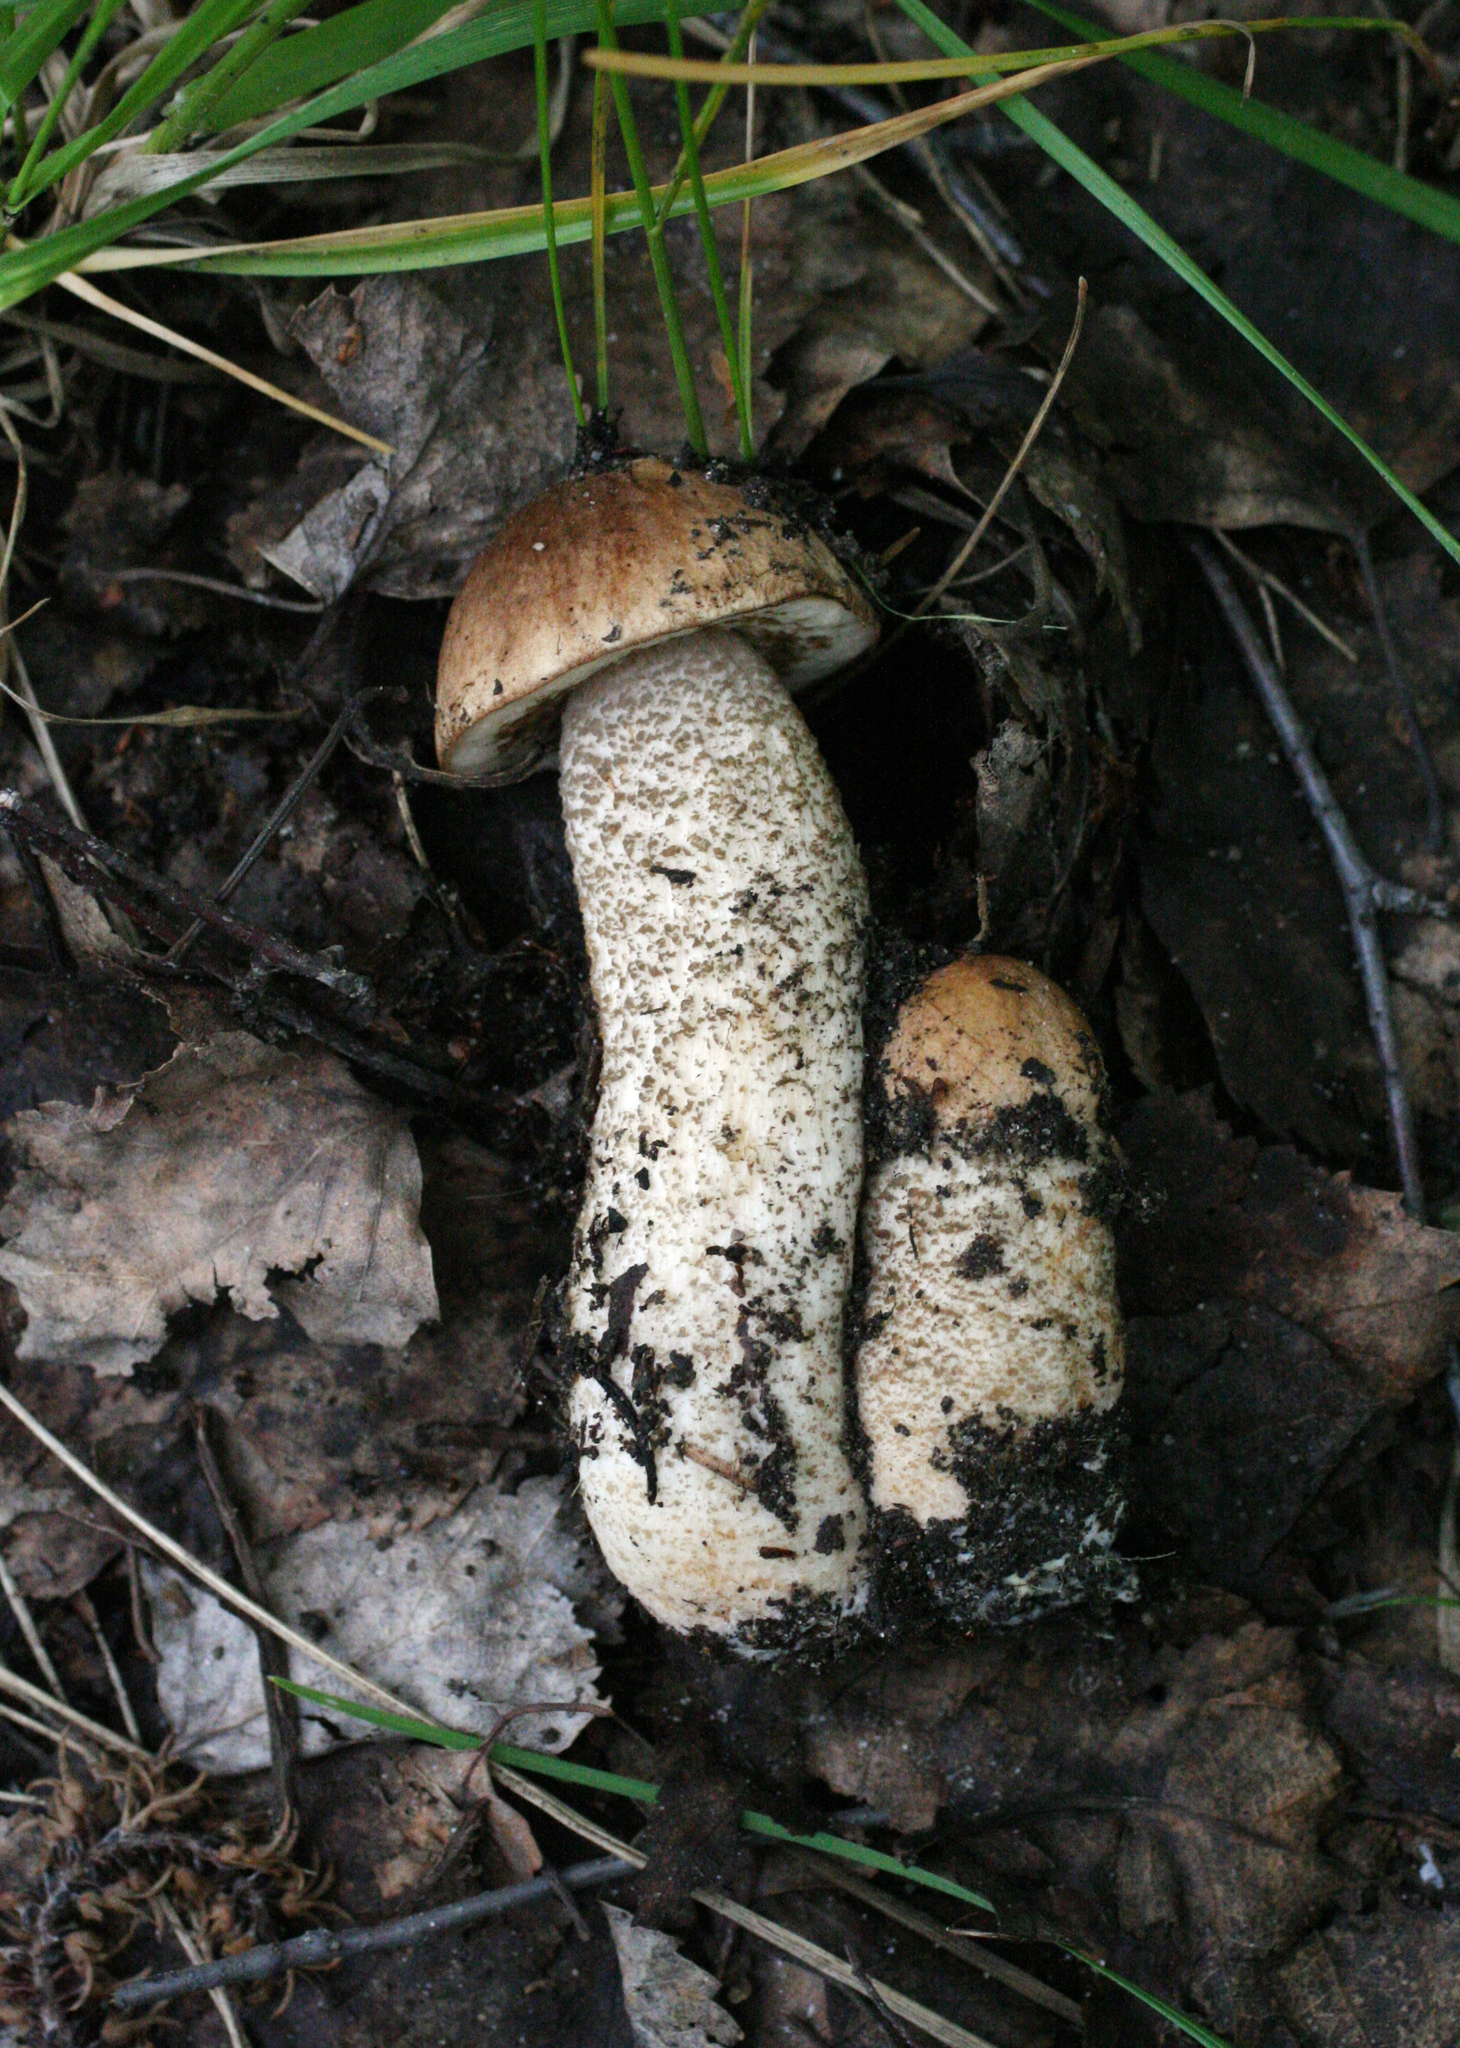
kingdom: Fungi
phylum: Basidiomycota
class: Agaricomycetes
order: Boletales
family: Boletaceae
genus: Leccinum
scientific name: Leccinum scabrum
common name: Blushing bolete
